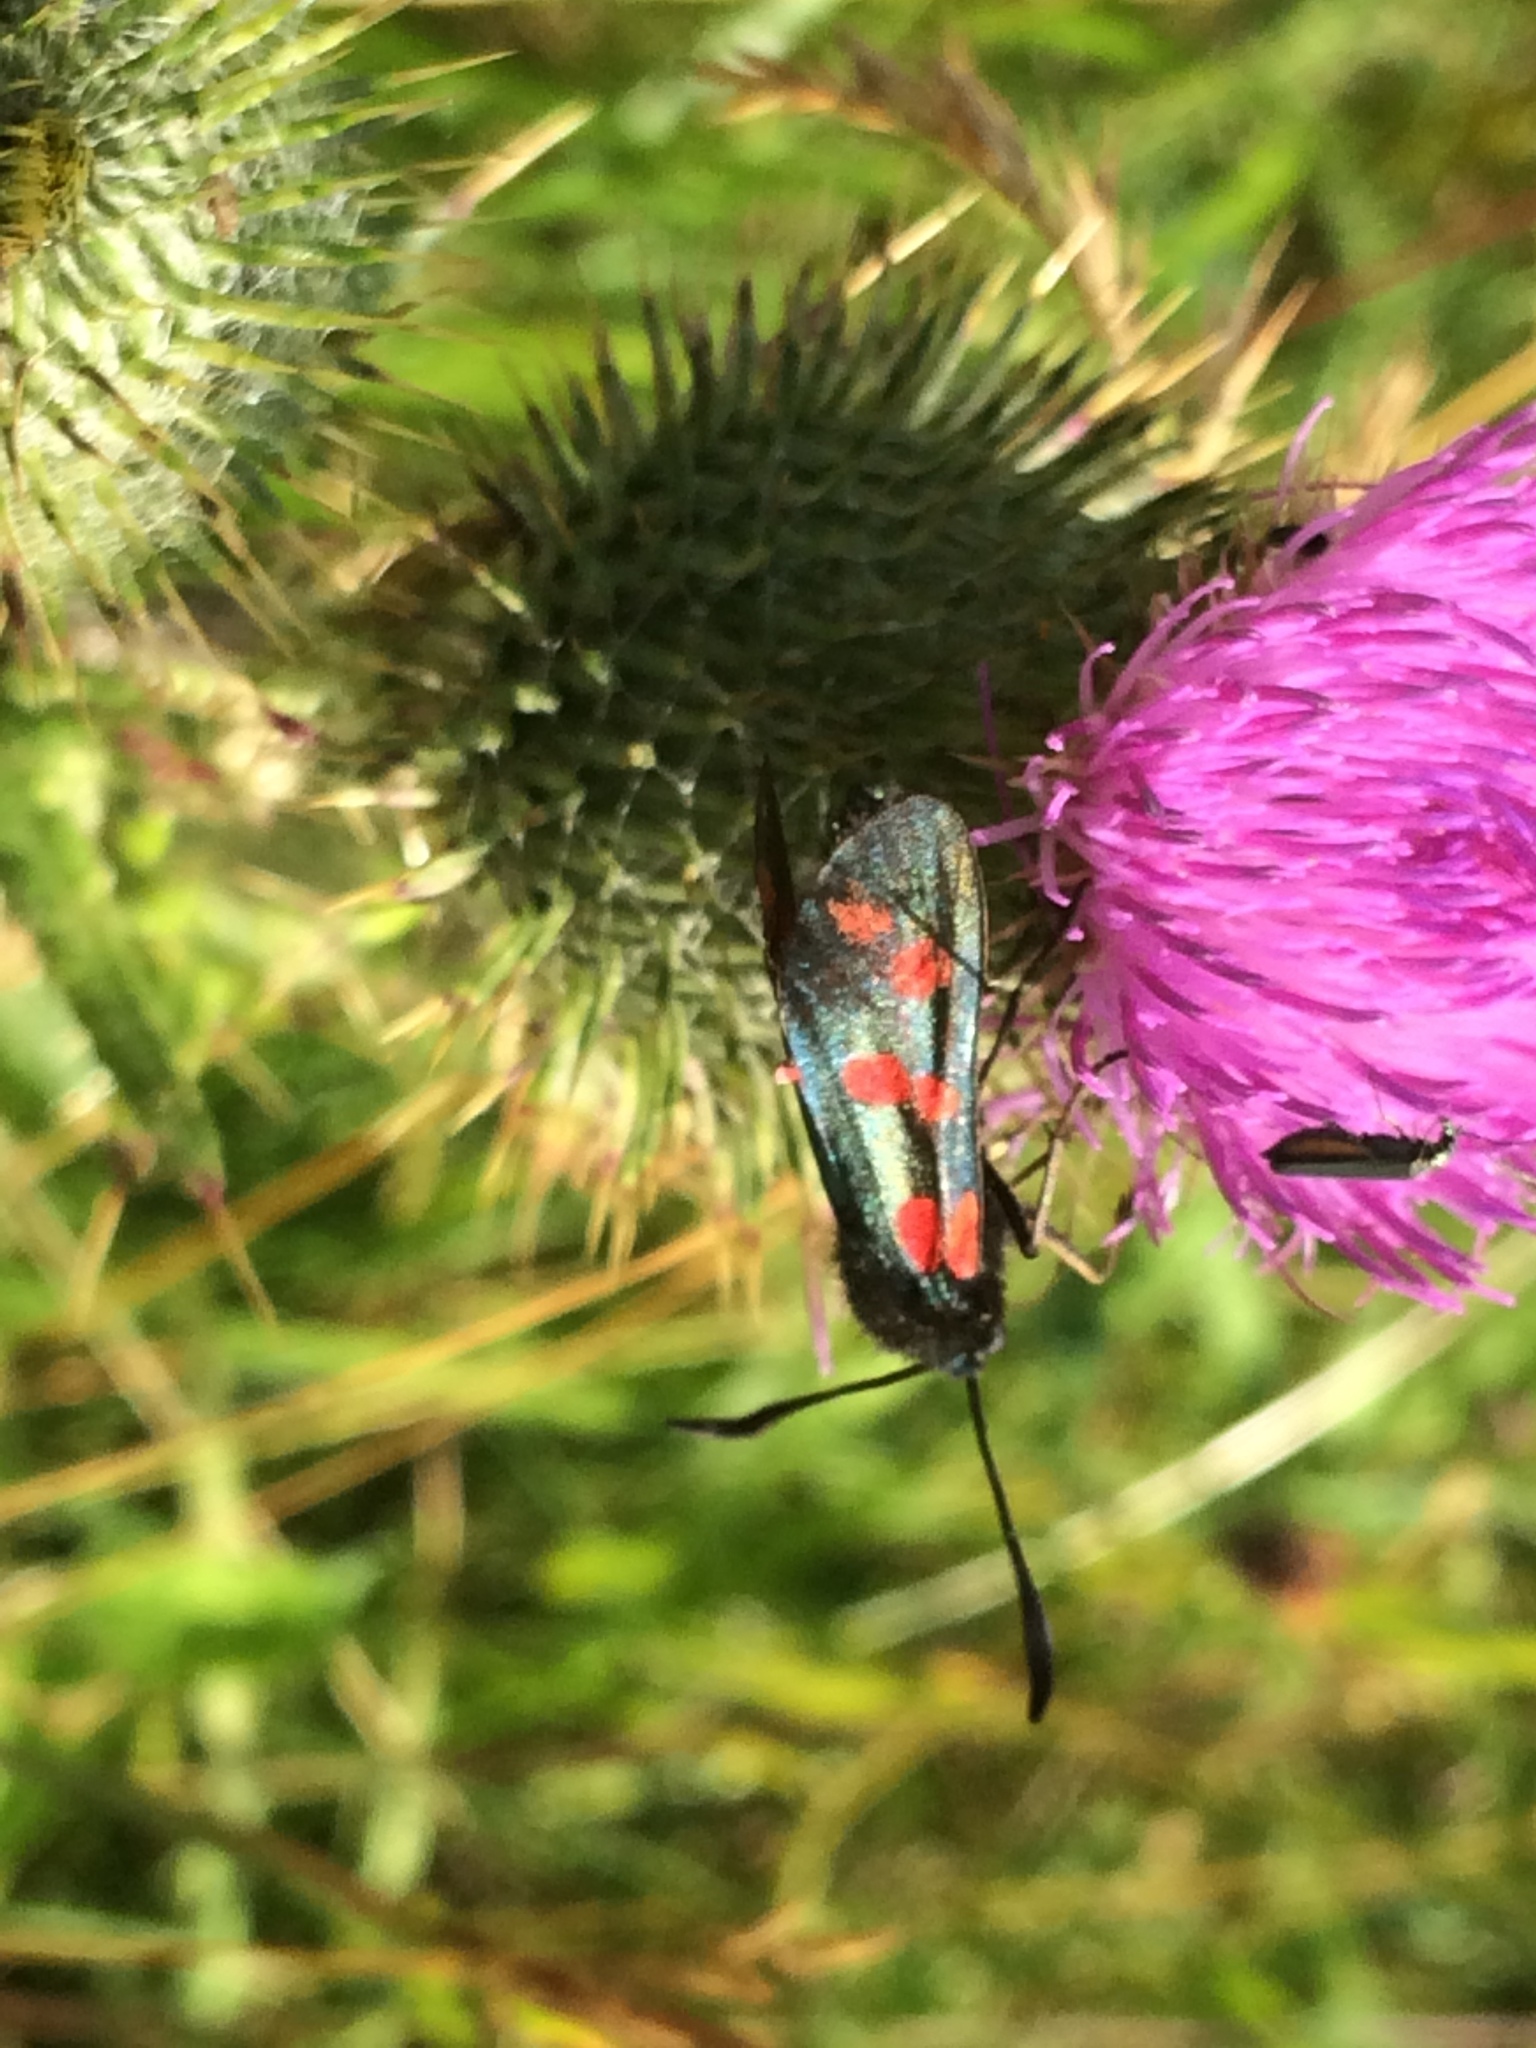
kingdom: Animalia
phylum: Arthropoda
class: Insecta
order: Lepidoptera
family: Zygaenidae
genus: Zygaena
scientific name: Zygaena filipendulae
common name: Six-spot burnet
